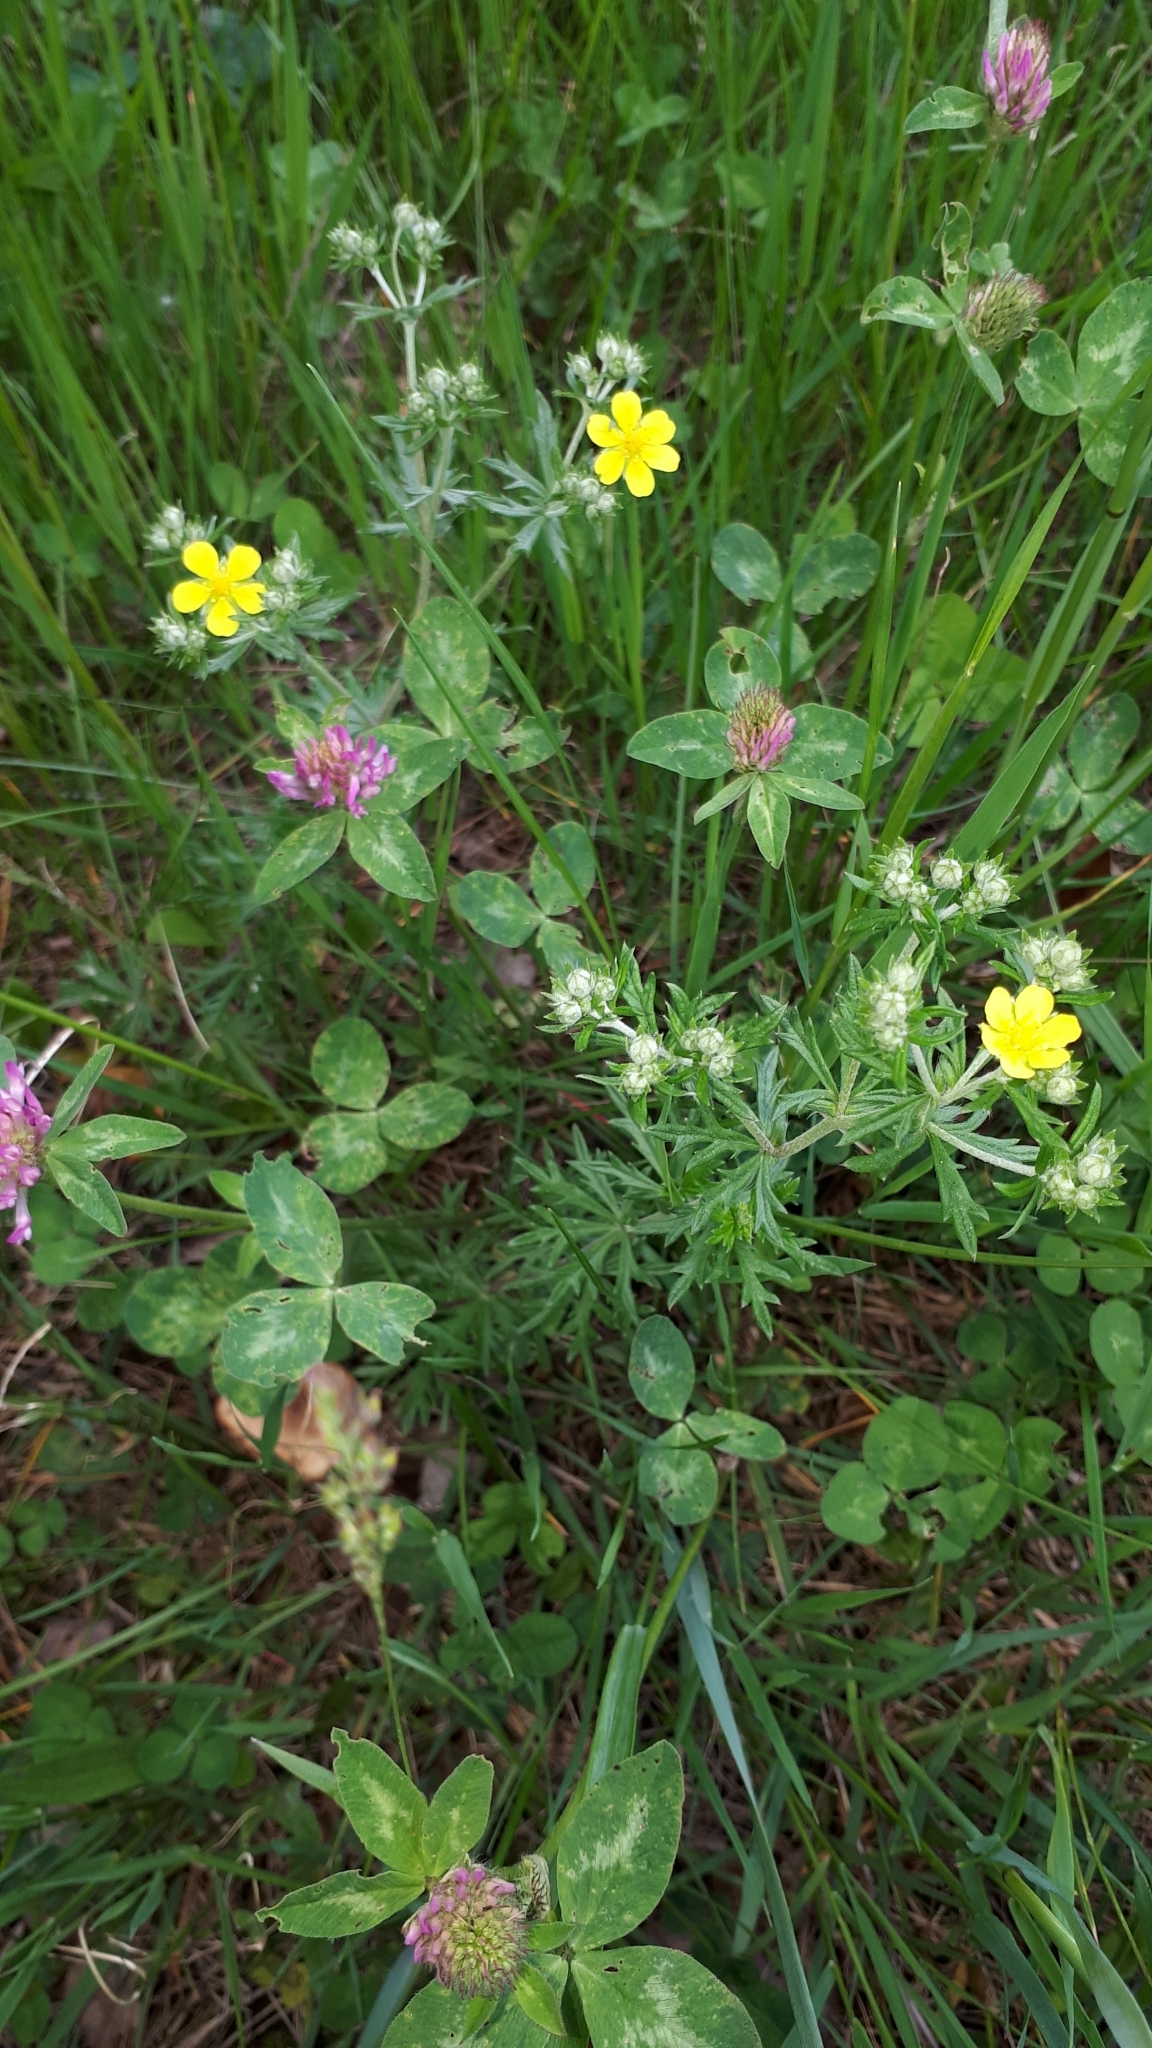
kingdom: Plantae
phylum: Tracheophyta
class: Magnoliopsida
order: Rosales
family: Rosaceae
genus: Potentilla
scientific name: Potentilla argentea
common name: Hoary cinquefoil
